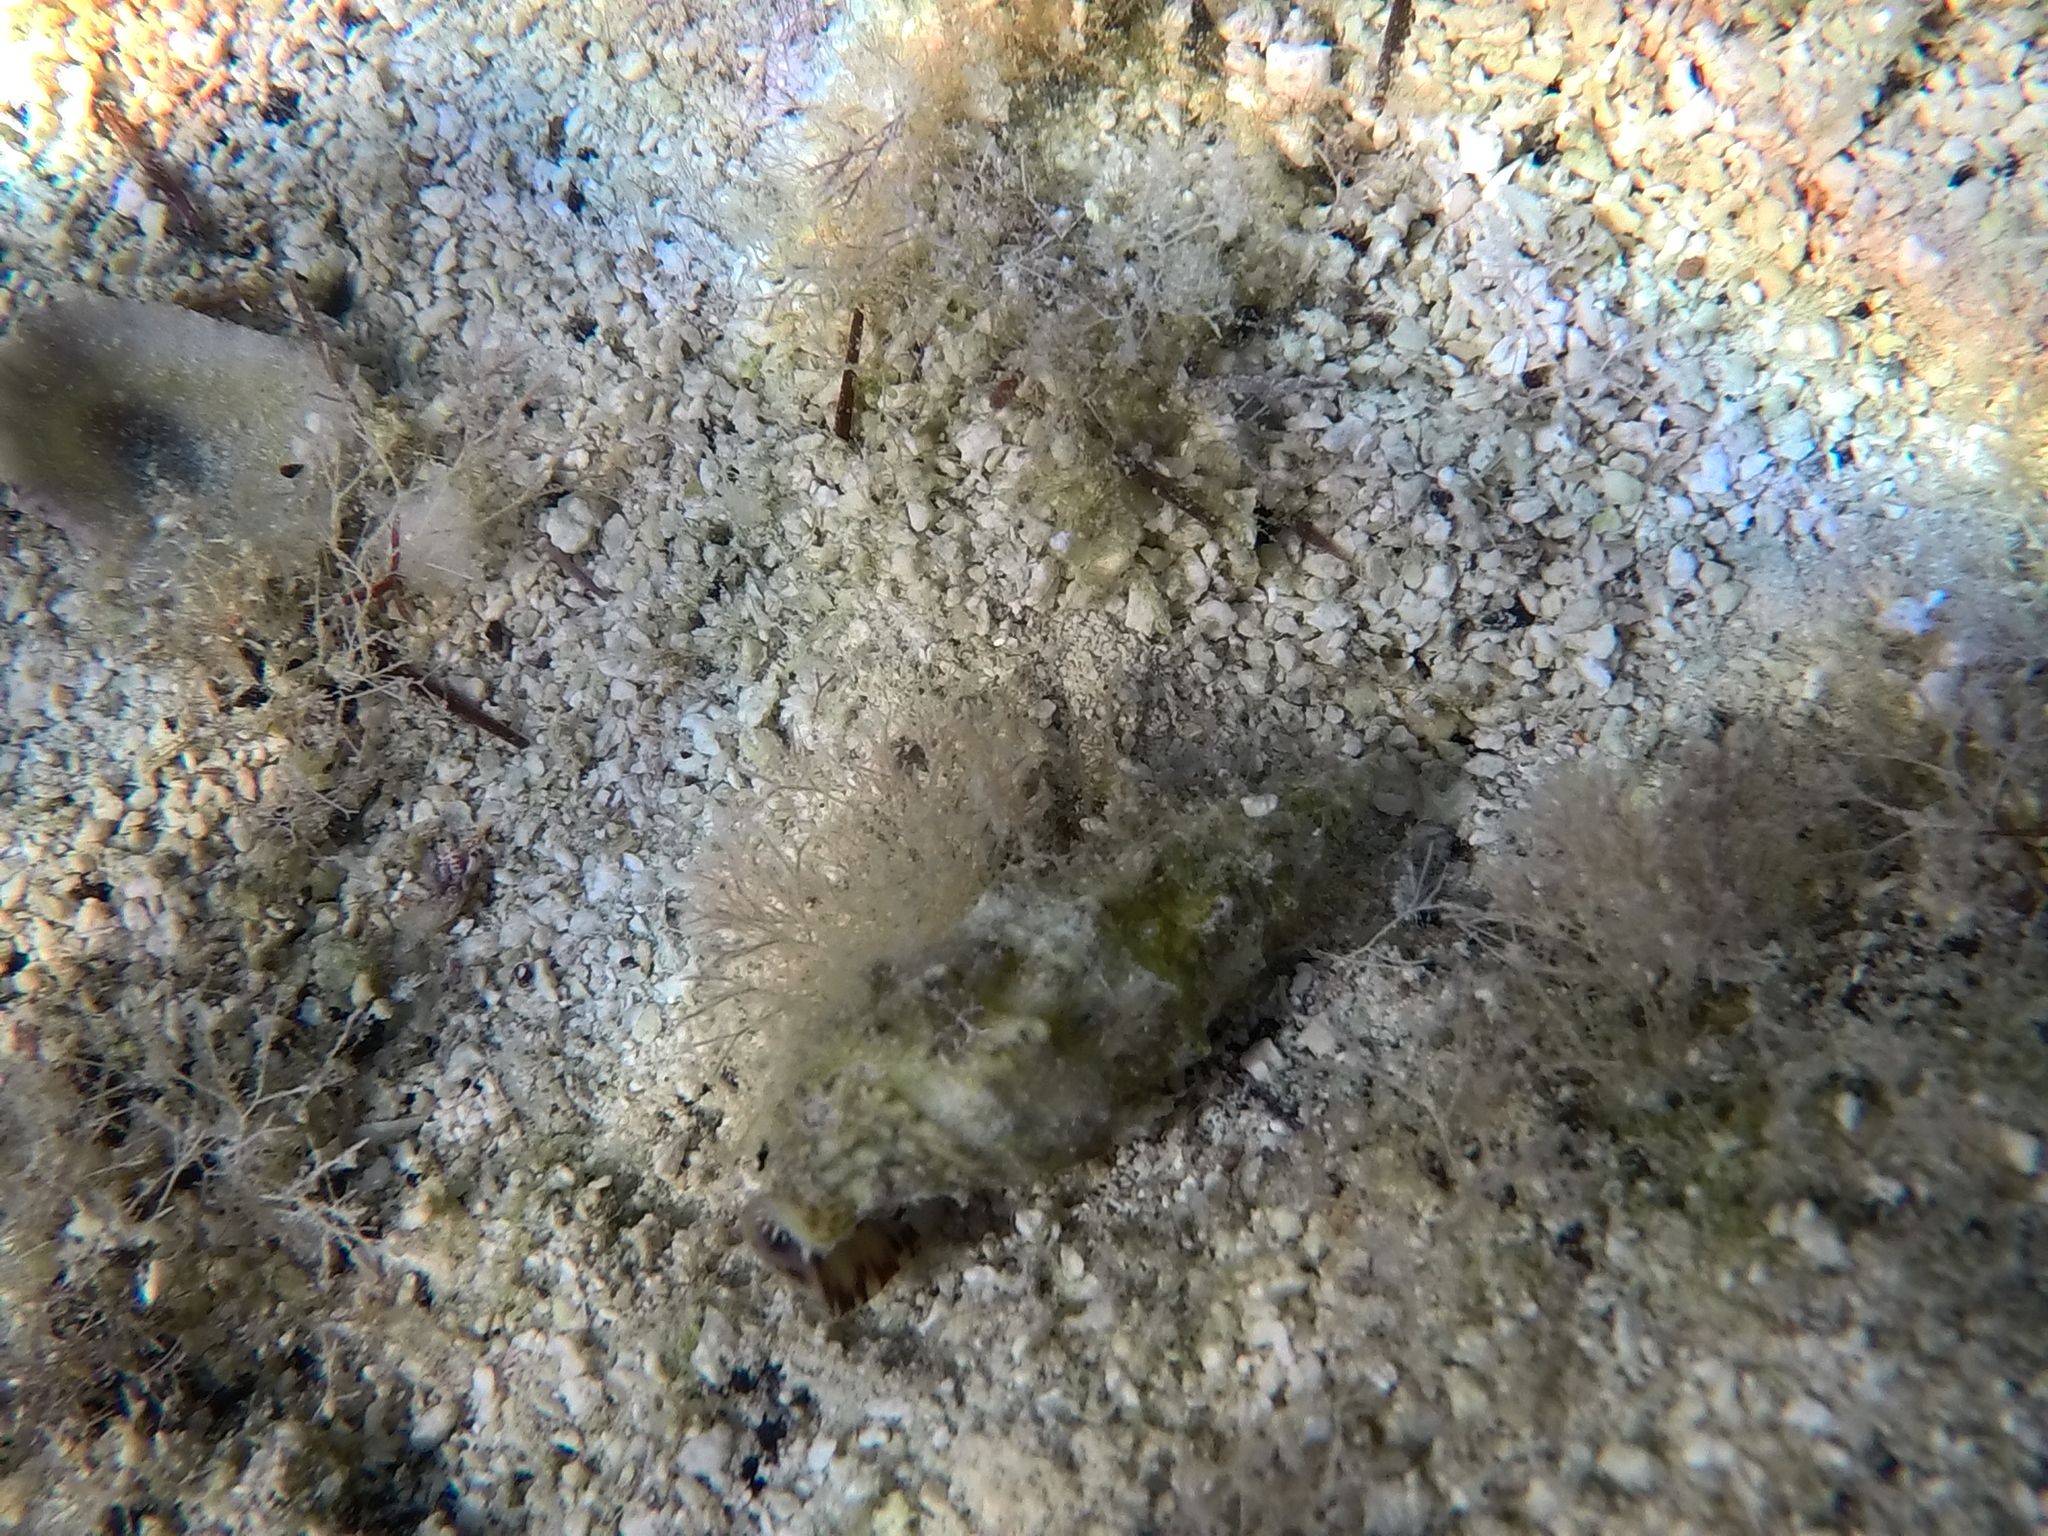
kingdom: Animalia
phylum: Mollusca
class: Gastropoda
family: Cerithiidae
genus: Cerithium
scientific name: Cerithium vulgatum
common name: European cerith
